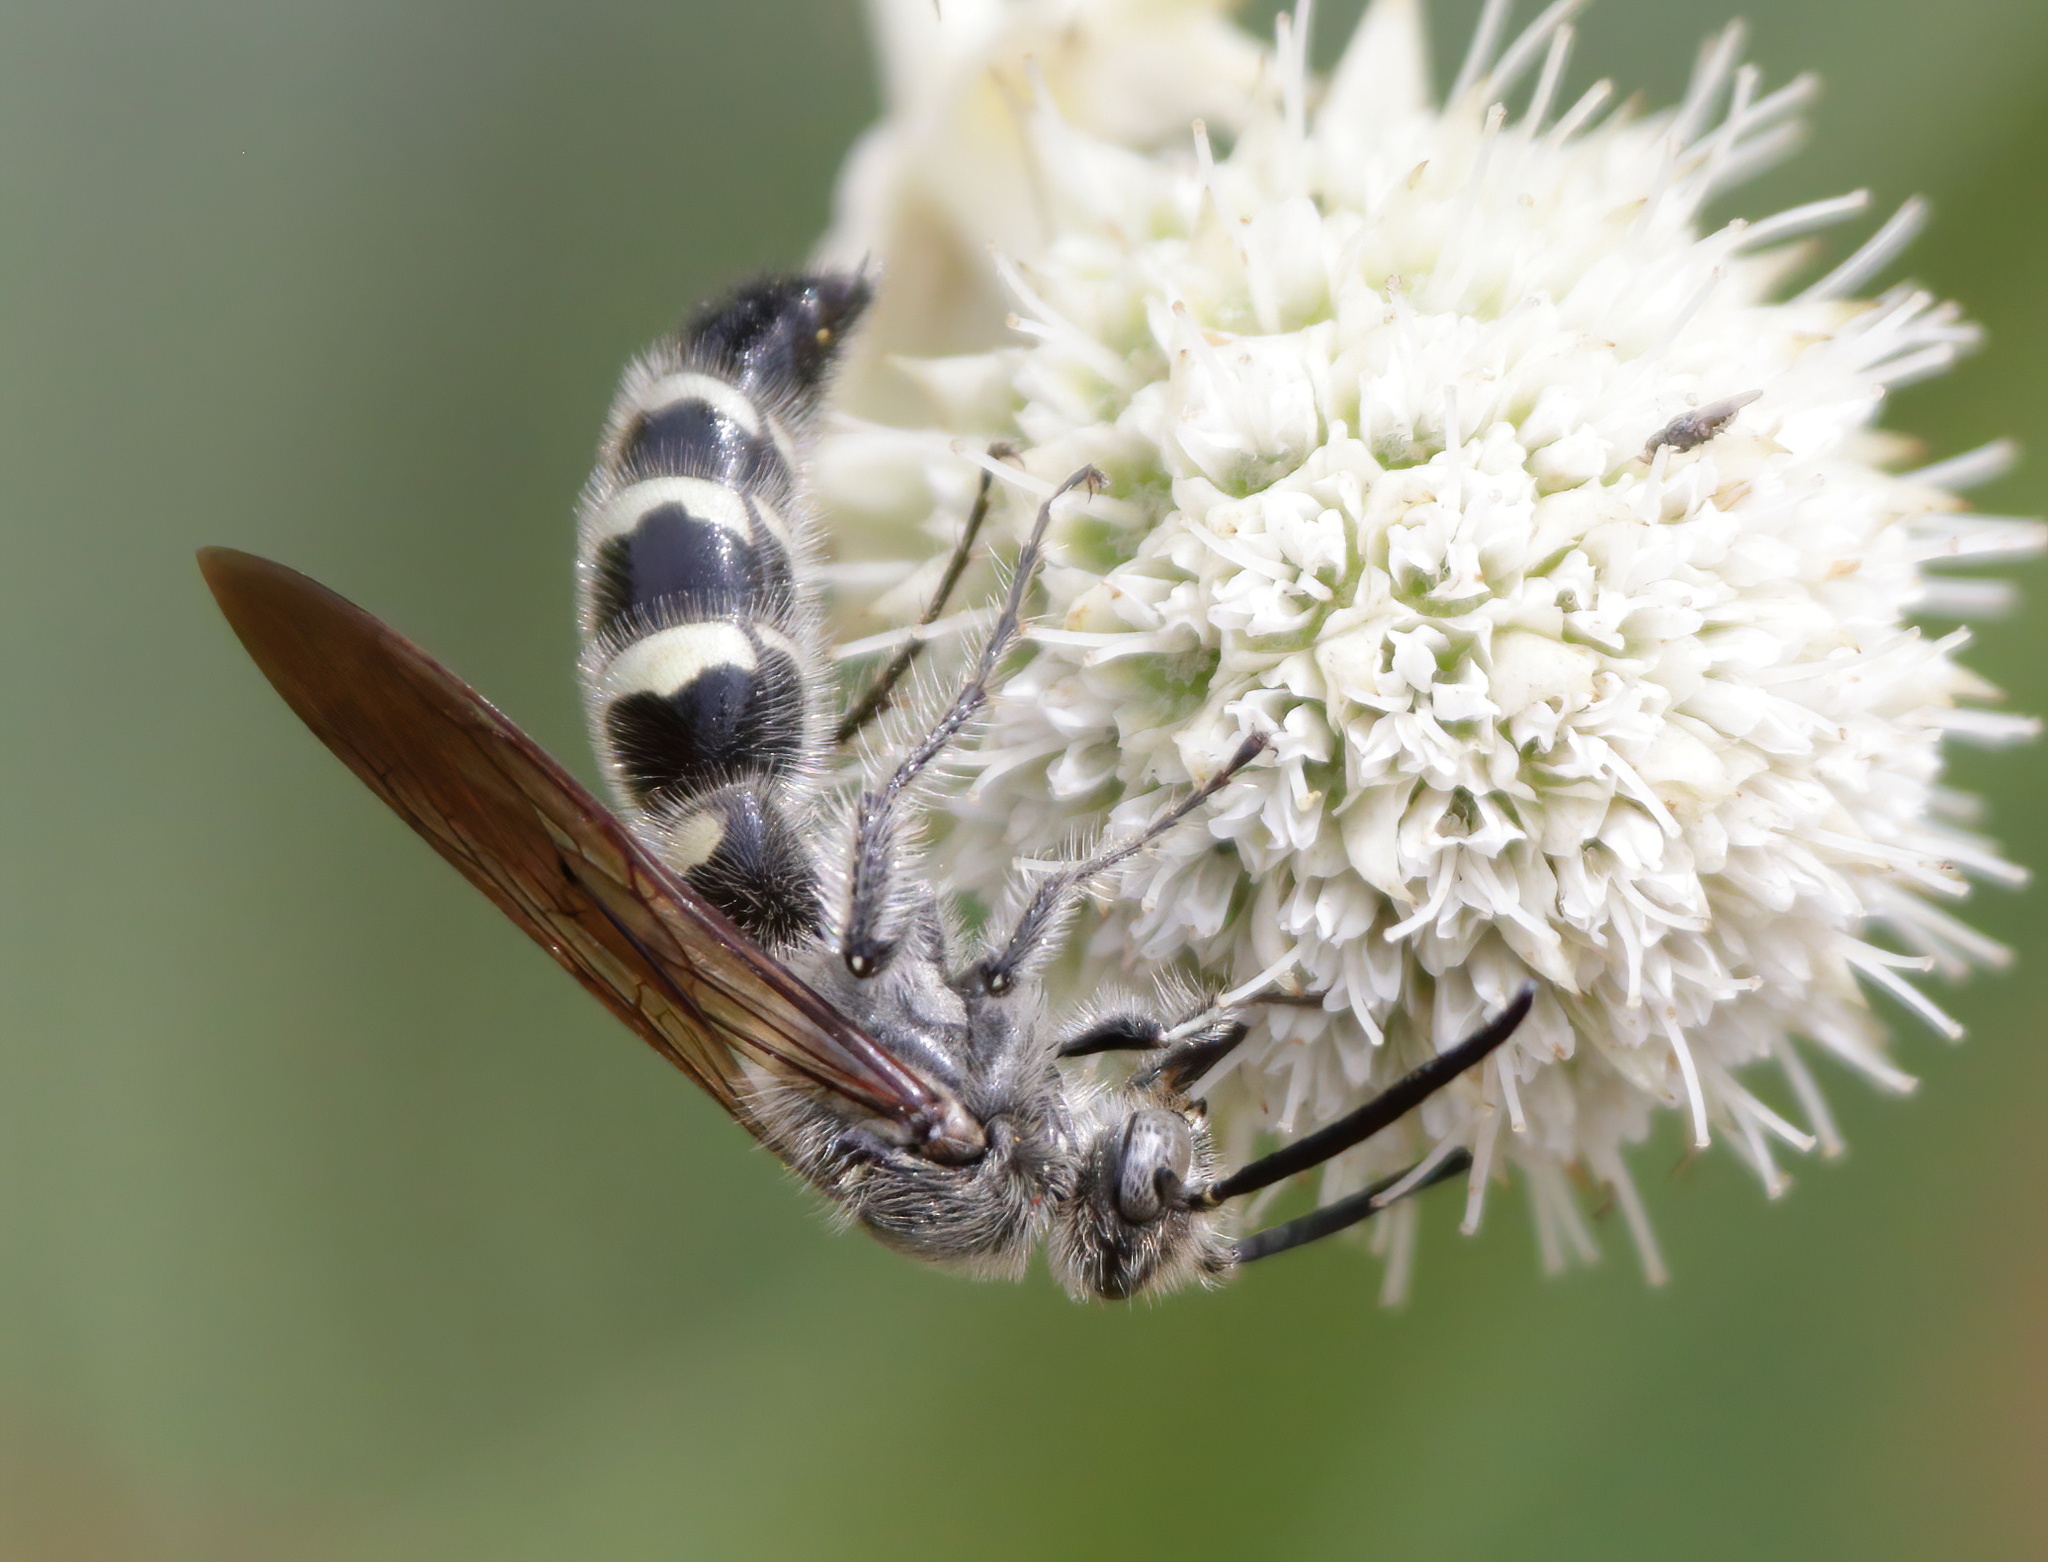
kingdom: Animalia
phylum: Arthropoda
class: Insecta
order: Hymenoptera
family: Scoliidae
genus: Dielis
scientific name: Dielis
